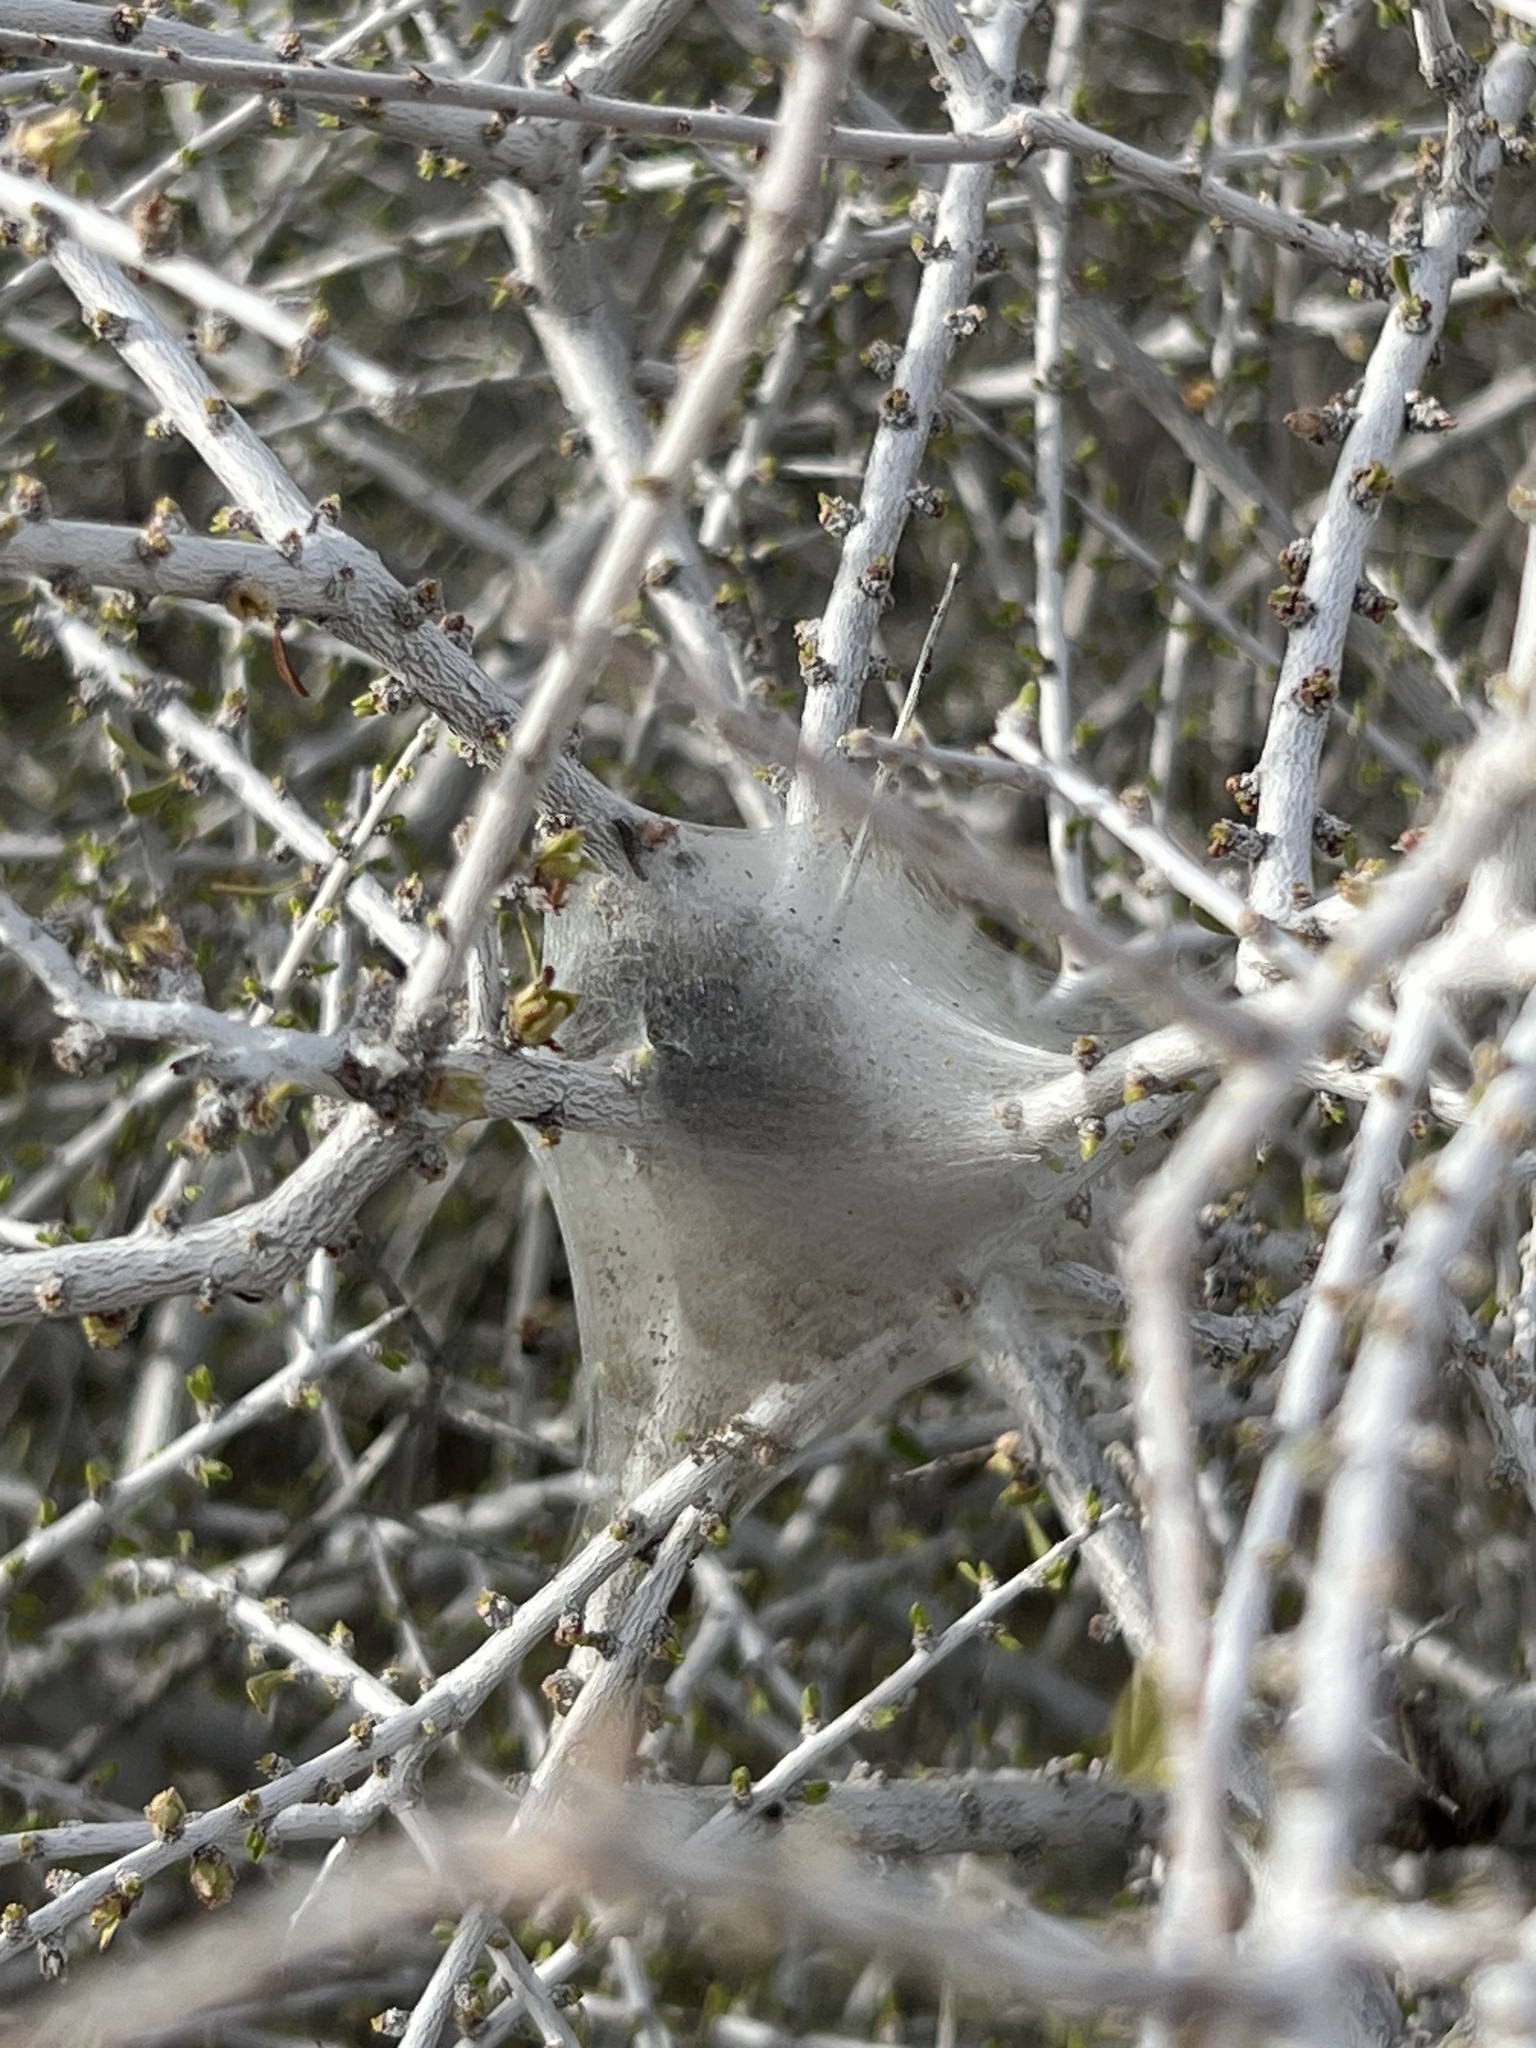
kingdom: Animalia
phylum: Arthropoda
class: Insecta
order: Lepidoptera
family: Lasiocampidae
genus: Malacosoma
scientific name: Malacosoma californica
